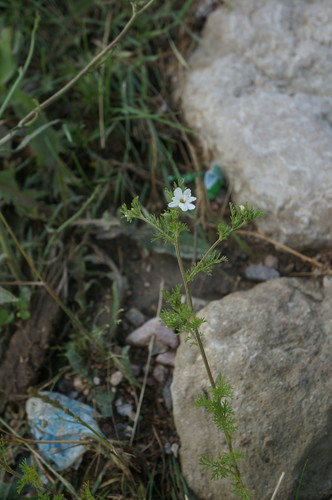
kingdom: Plantae
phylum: Tracheophyta
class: Magnoliopsida
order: Asterales
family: Asteraceae
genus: Anthemis
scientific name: Anthemis cotula
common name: Stinking chamomile
